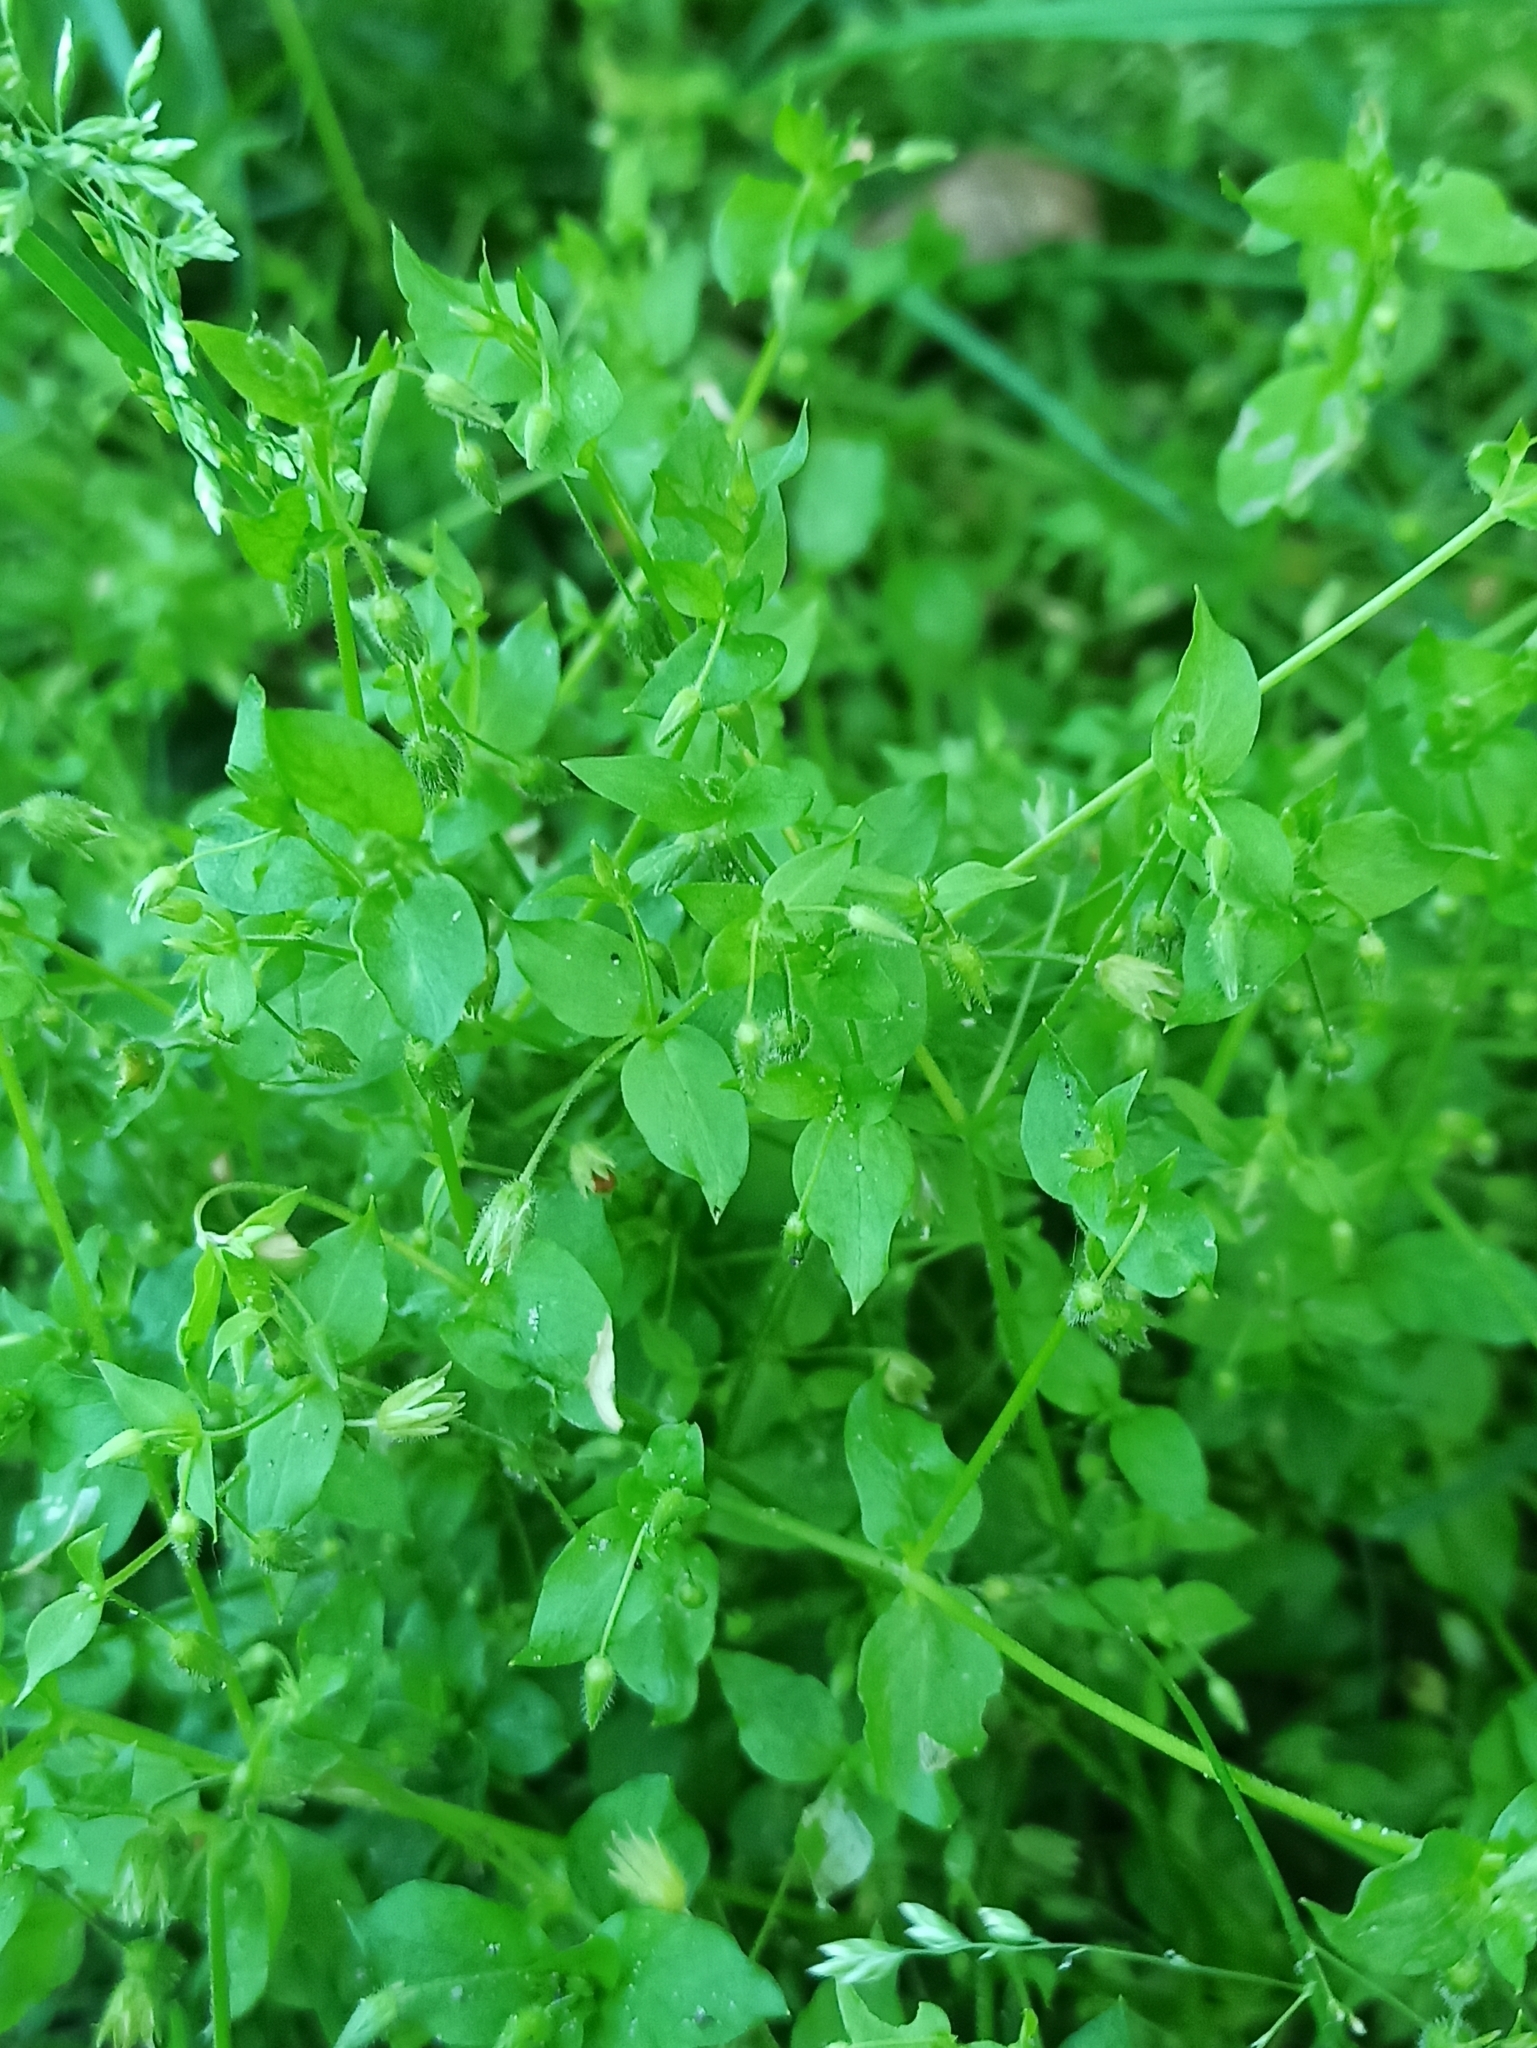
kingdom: Plantae
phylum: Tracheophyta
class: Magnoliopsida
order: Caryophyllales
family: Caryophyllaceae
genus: Stellaria
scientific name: Stellaria media
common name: Common chickweed
